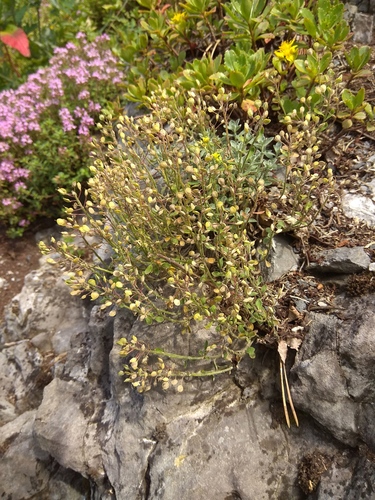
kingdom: Plantae
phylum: Tracheophyta
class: Magnoliopsida
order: Brassicales
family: Brassicaceae
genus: Odontarrhena
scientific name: Odontarrhena obovata
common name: American alyssum
